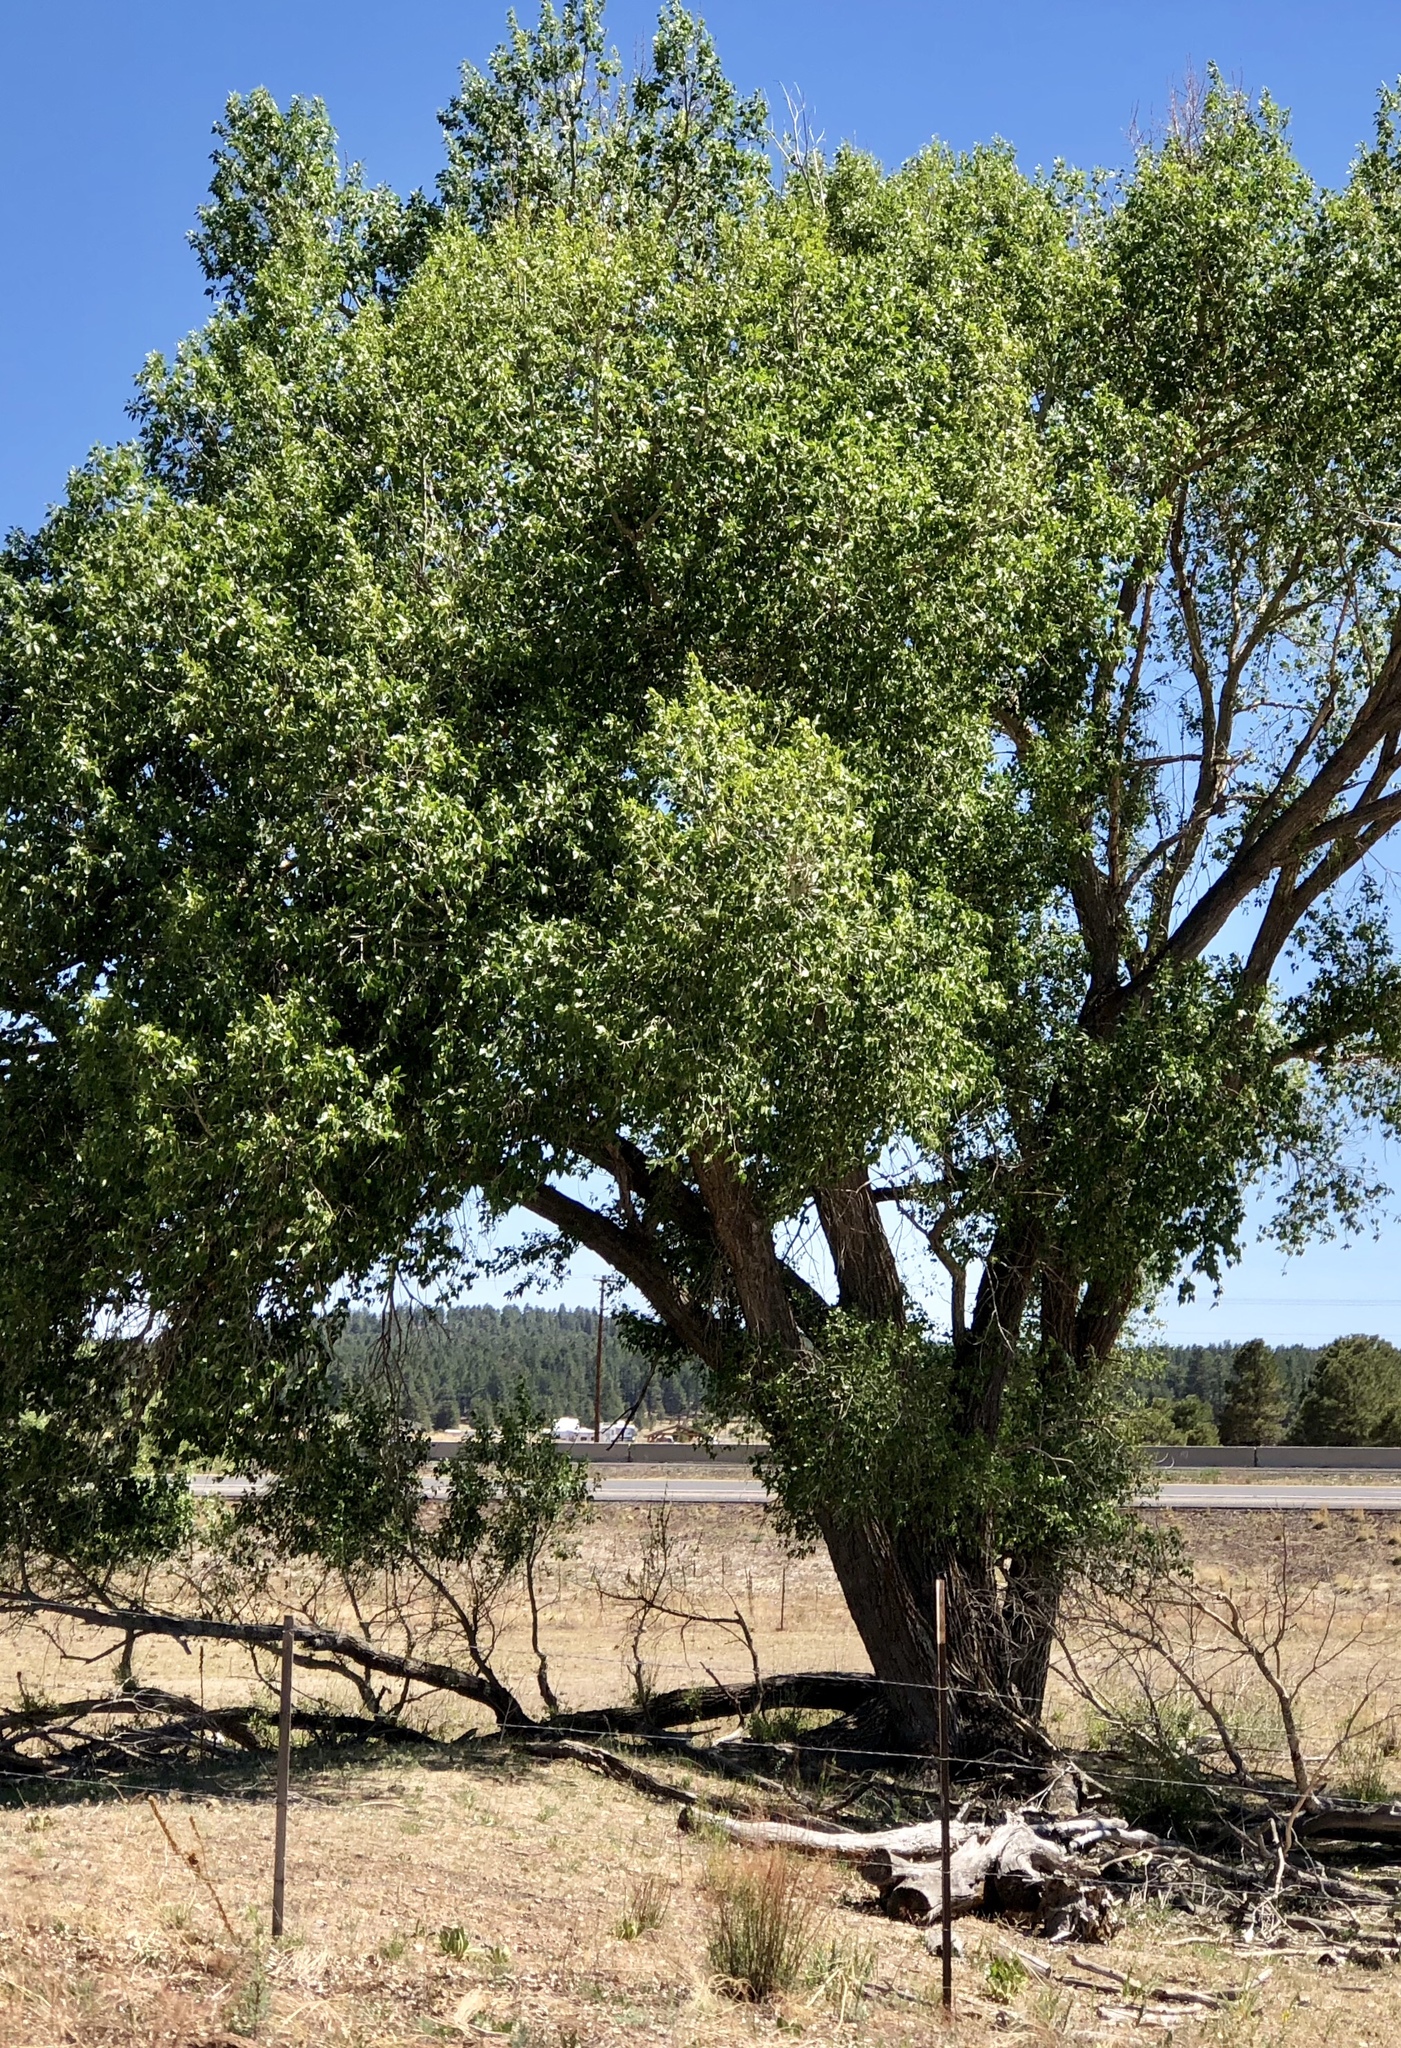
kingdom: Plantae
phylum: Tracheophyta
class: Magnoliopsida
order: Malpighiales
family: Salicaceae
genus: Populus
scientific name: Populus fremontii
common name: Fremont's cottonwood
